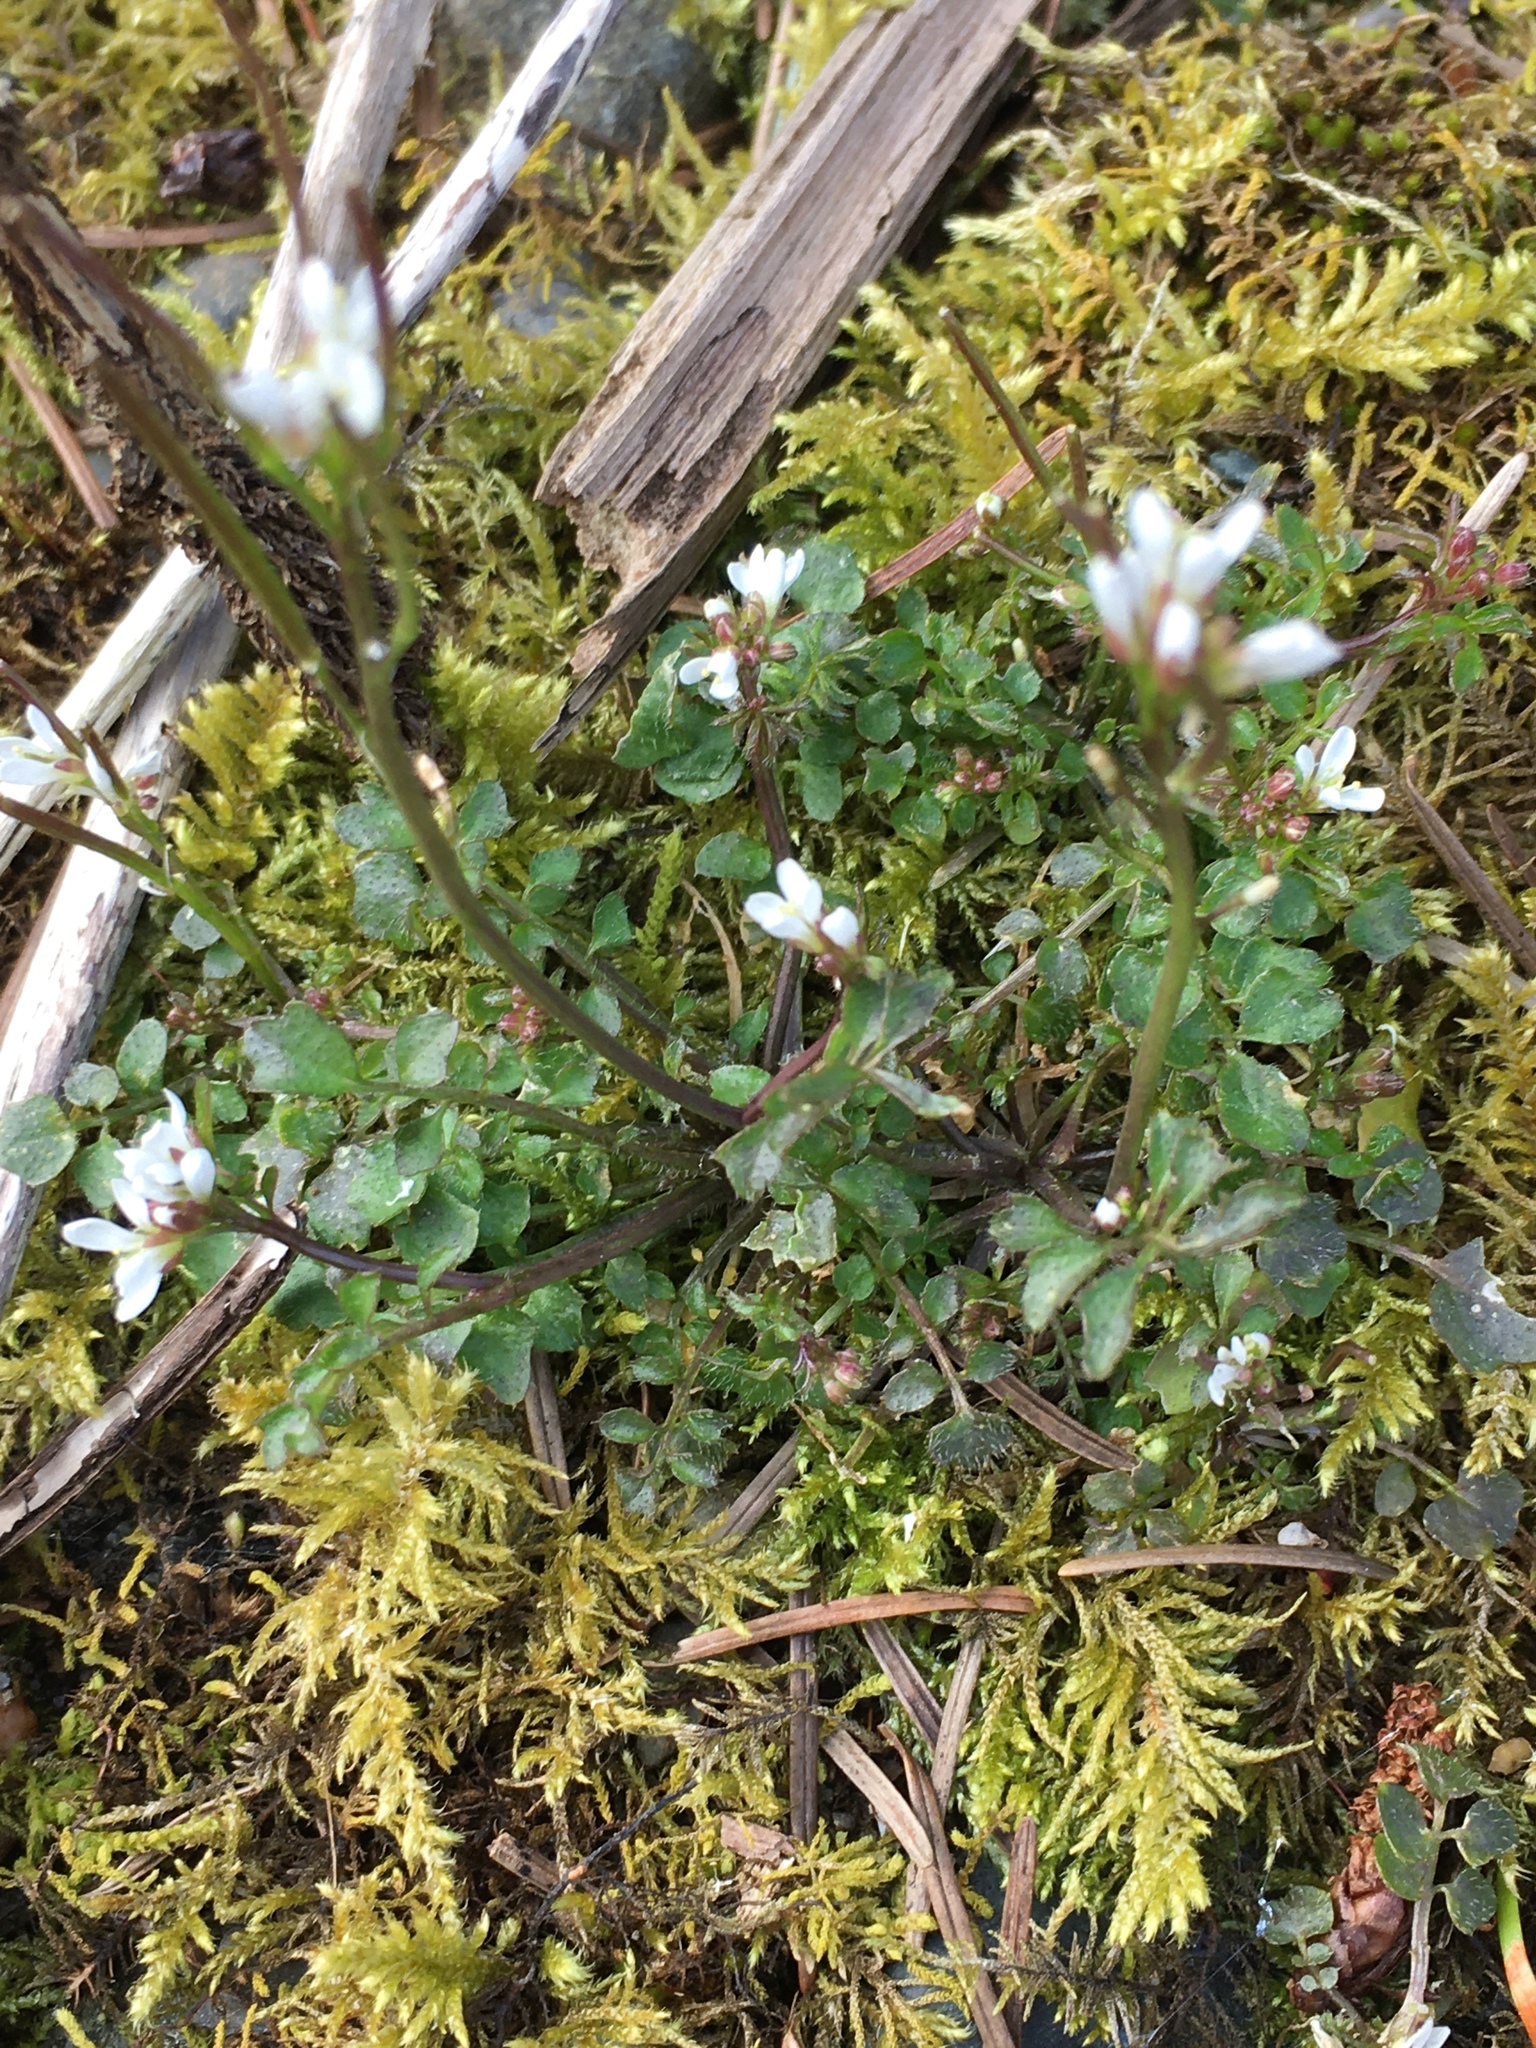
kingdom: Plantae
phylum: Tracheophyta
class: Magnoliopsida
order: Brassicales
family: Brassicaceae
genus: Cardamine
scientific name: Cardamine hirsuta
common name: Hairy bittercress
